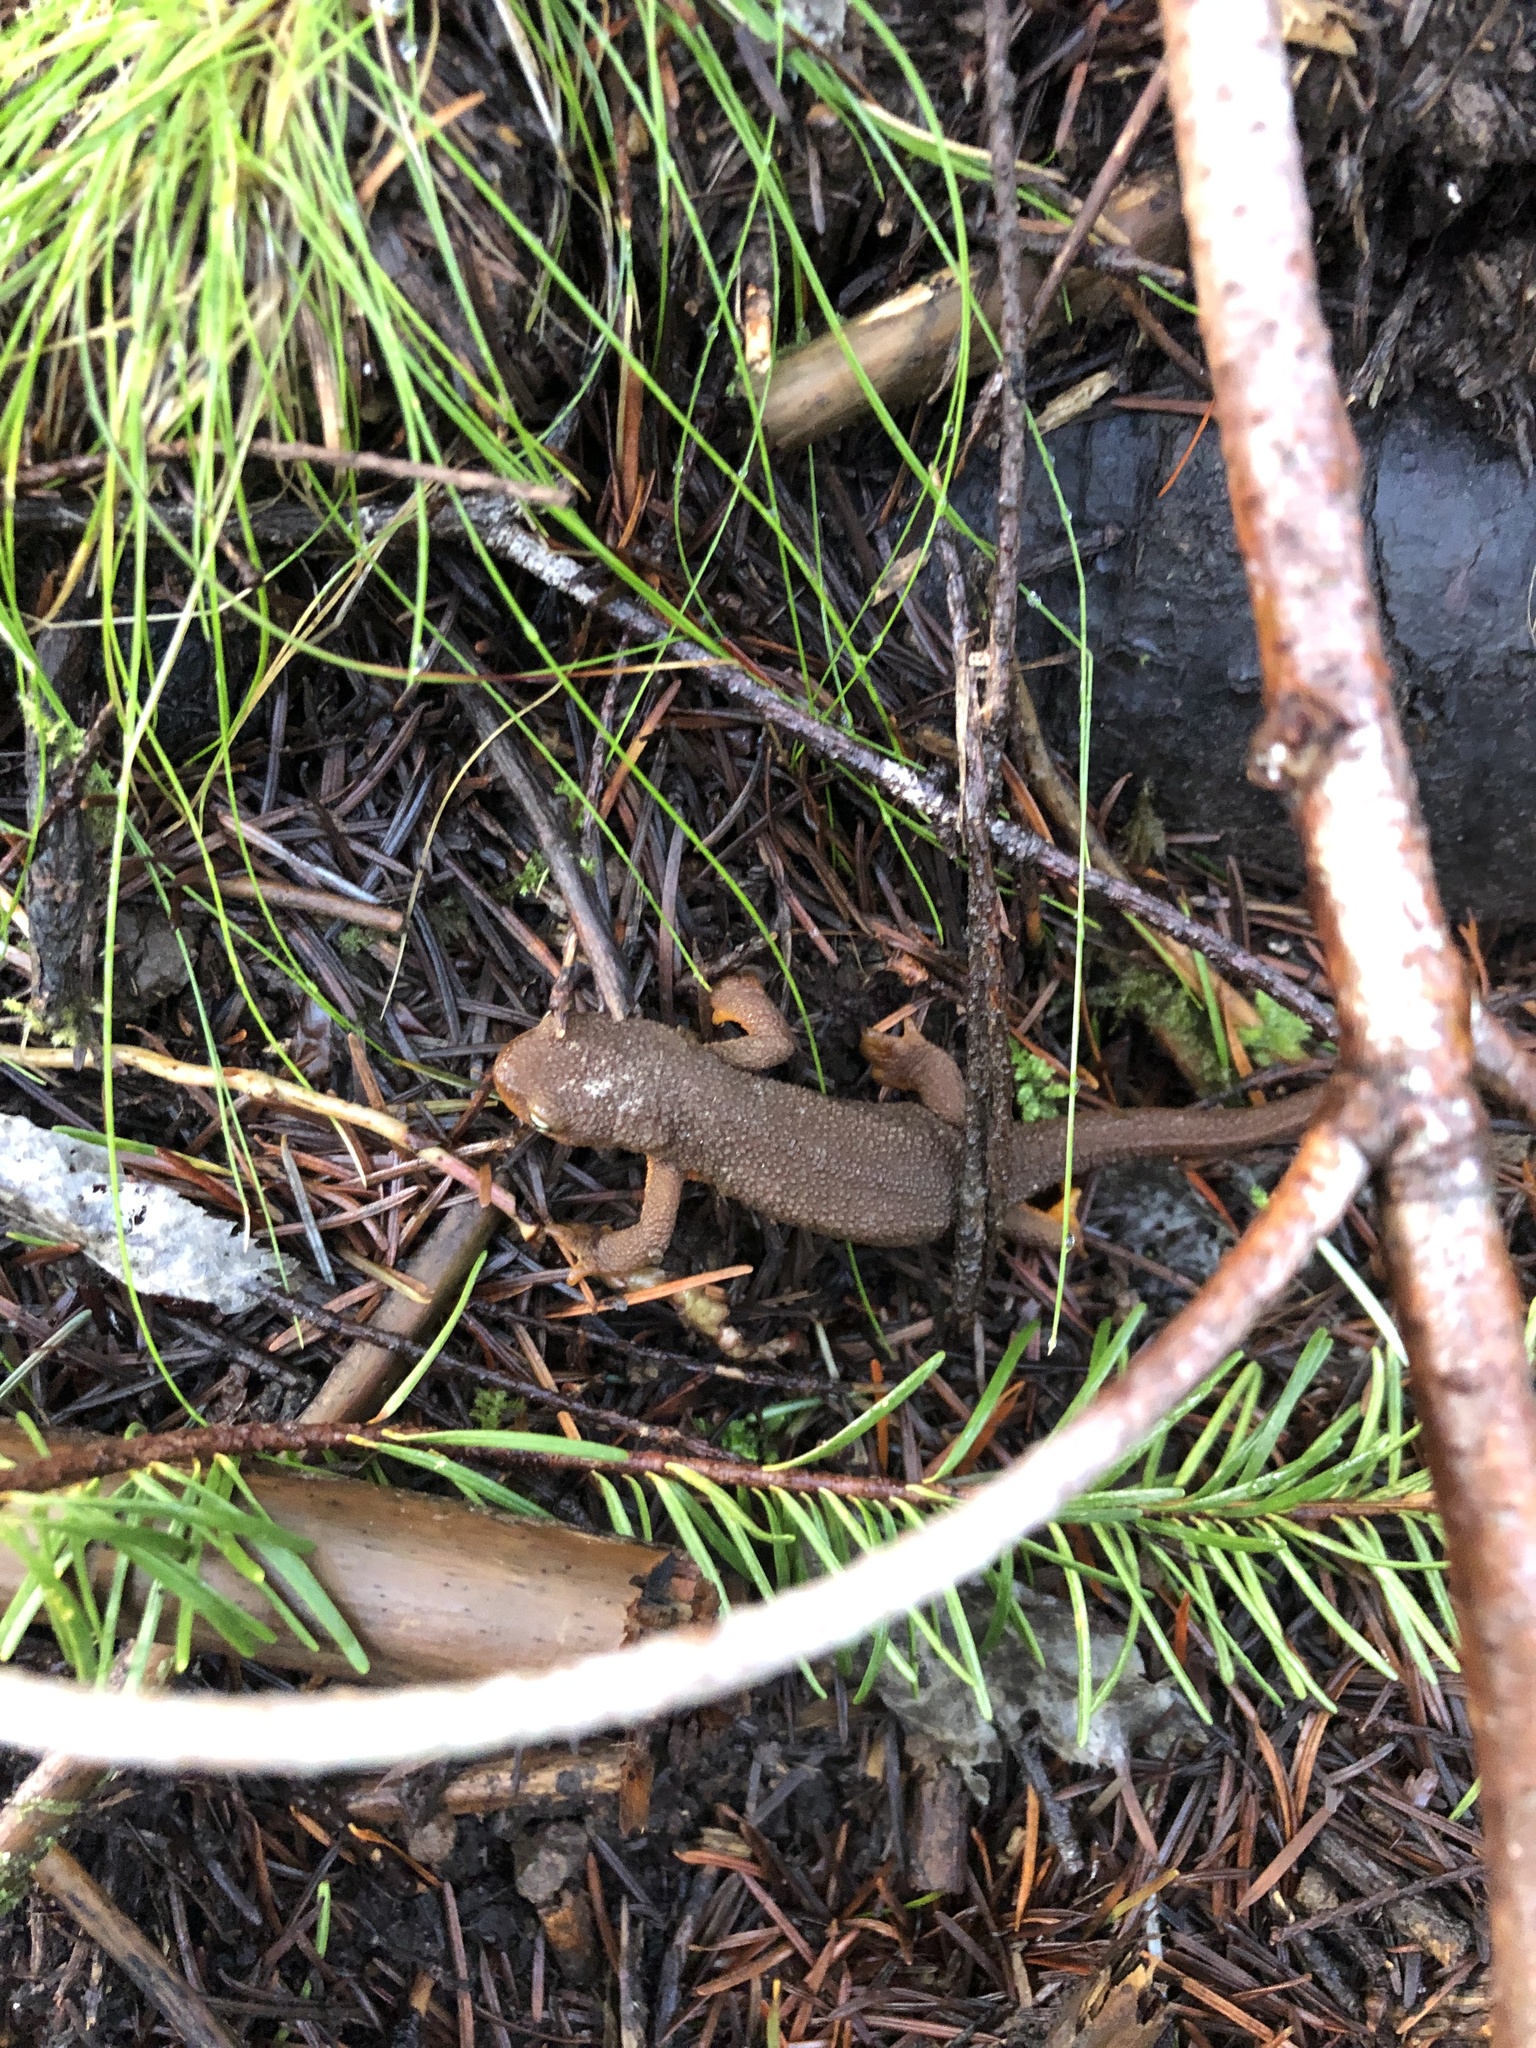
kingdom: Animalia
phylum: Chordata
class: Amphibia
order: Caudata
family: Salamandridae
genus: Taricha
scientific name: Taricha granulosa
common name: Roughskin newt
